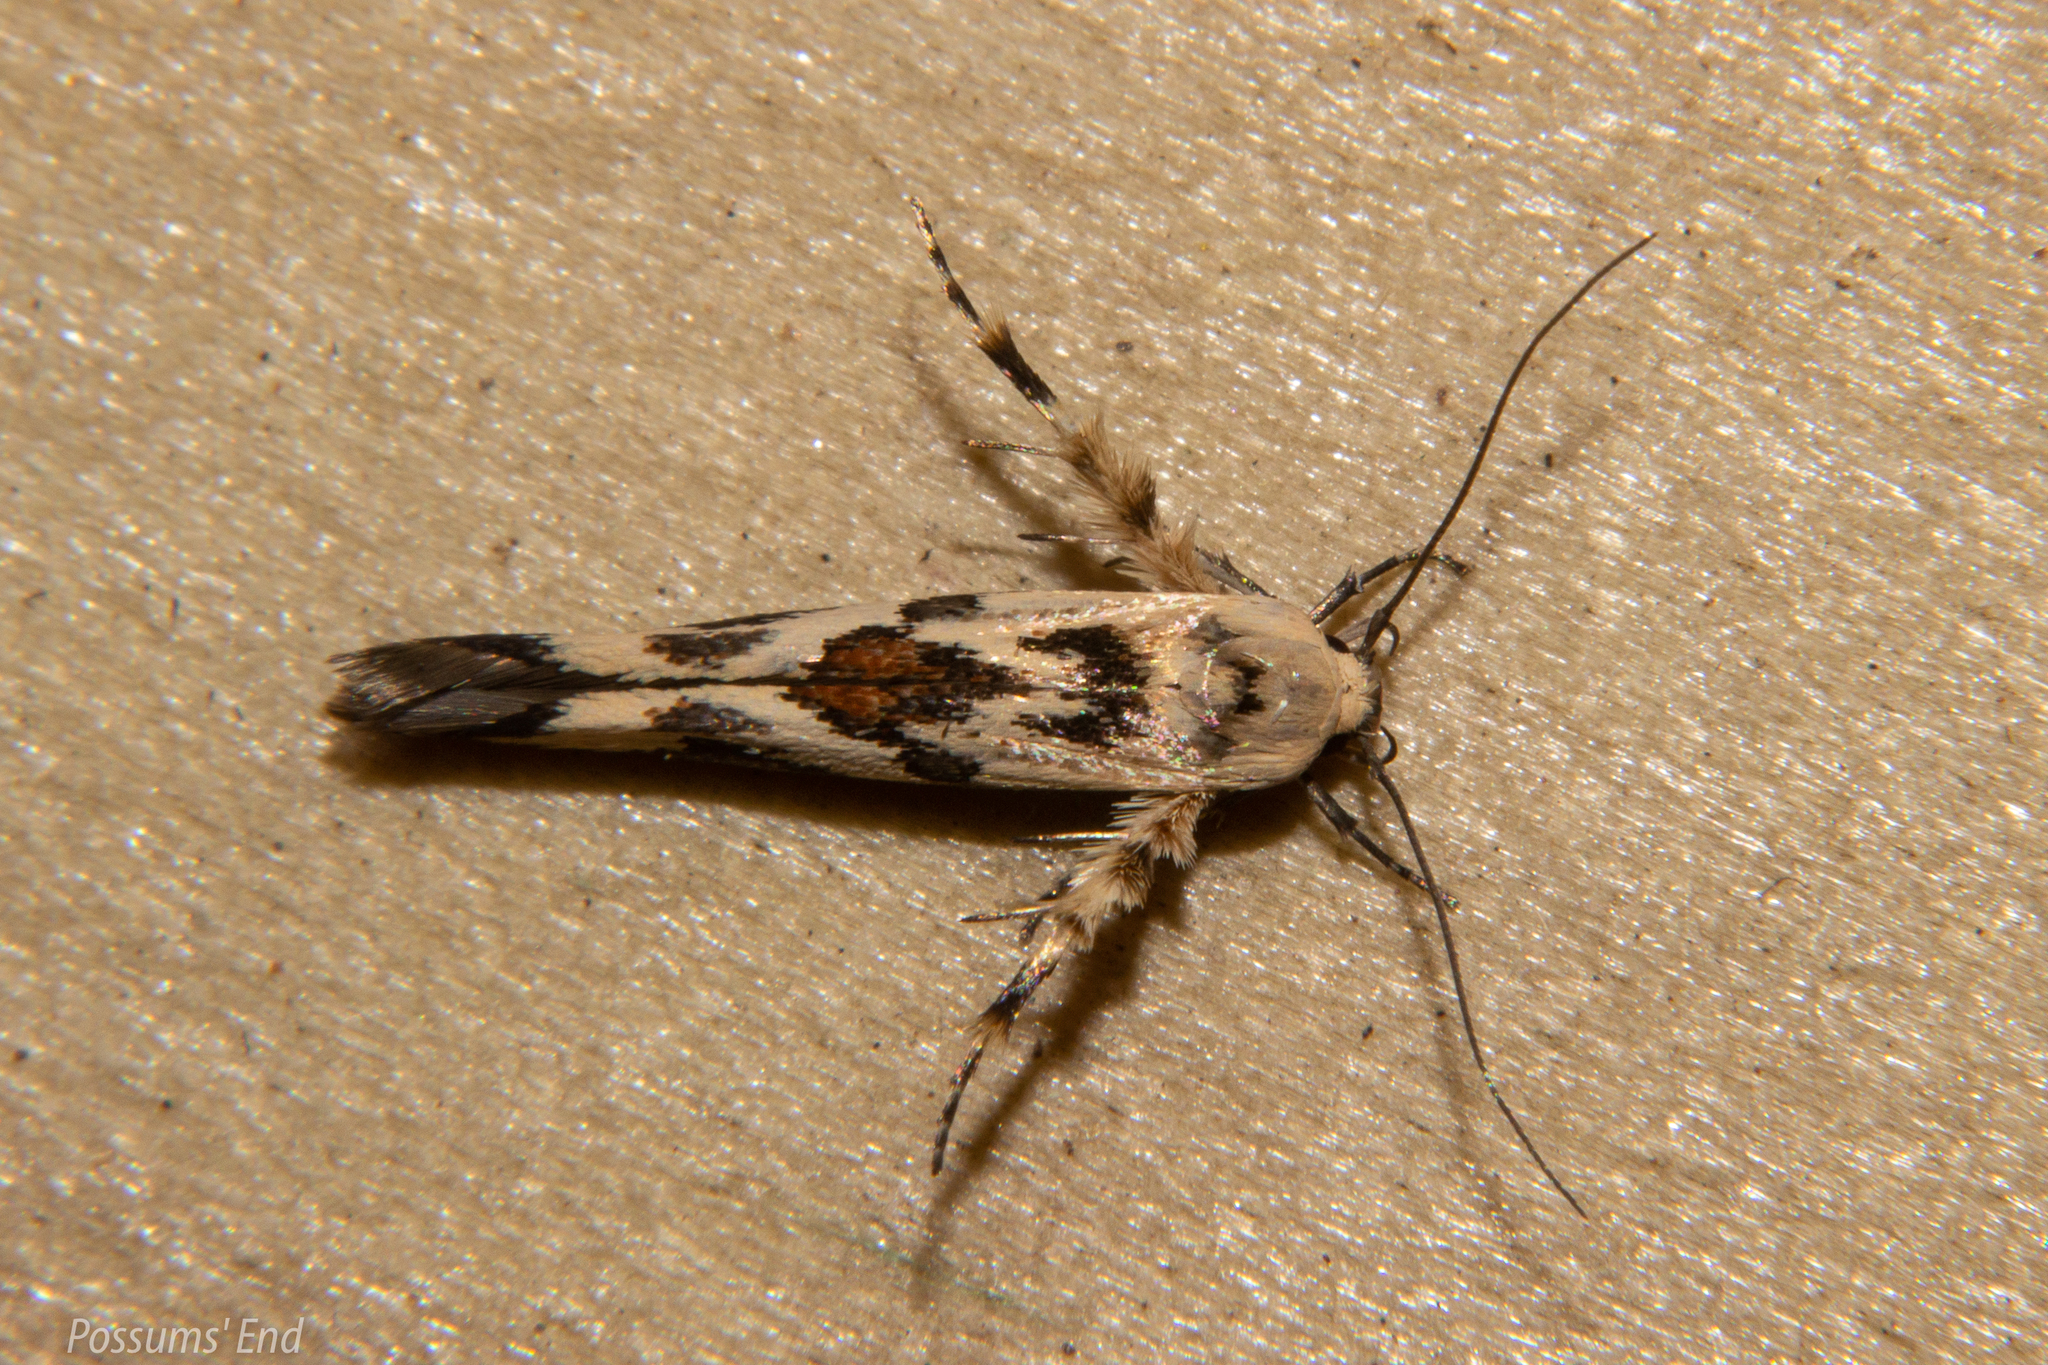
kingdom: Animalia
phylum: Arthropoda
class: Insecta
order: Lepidoptera
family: Stathmopodidae
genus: Stathmopoda
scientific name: Stathmopoda melanochra
